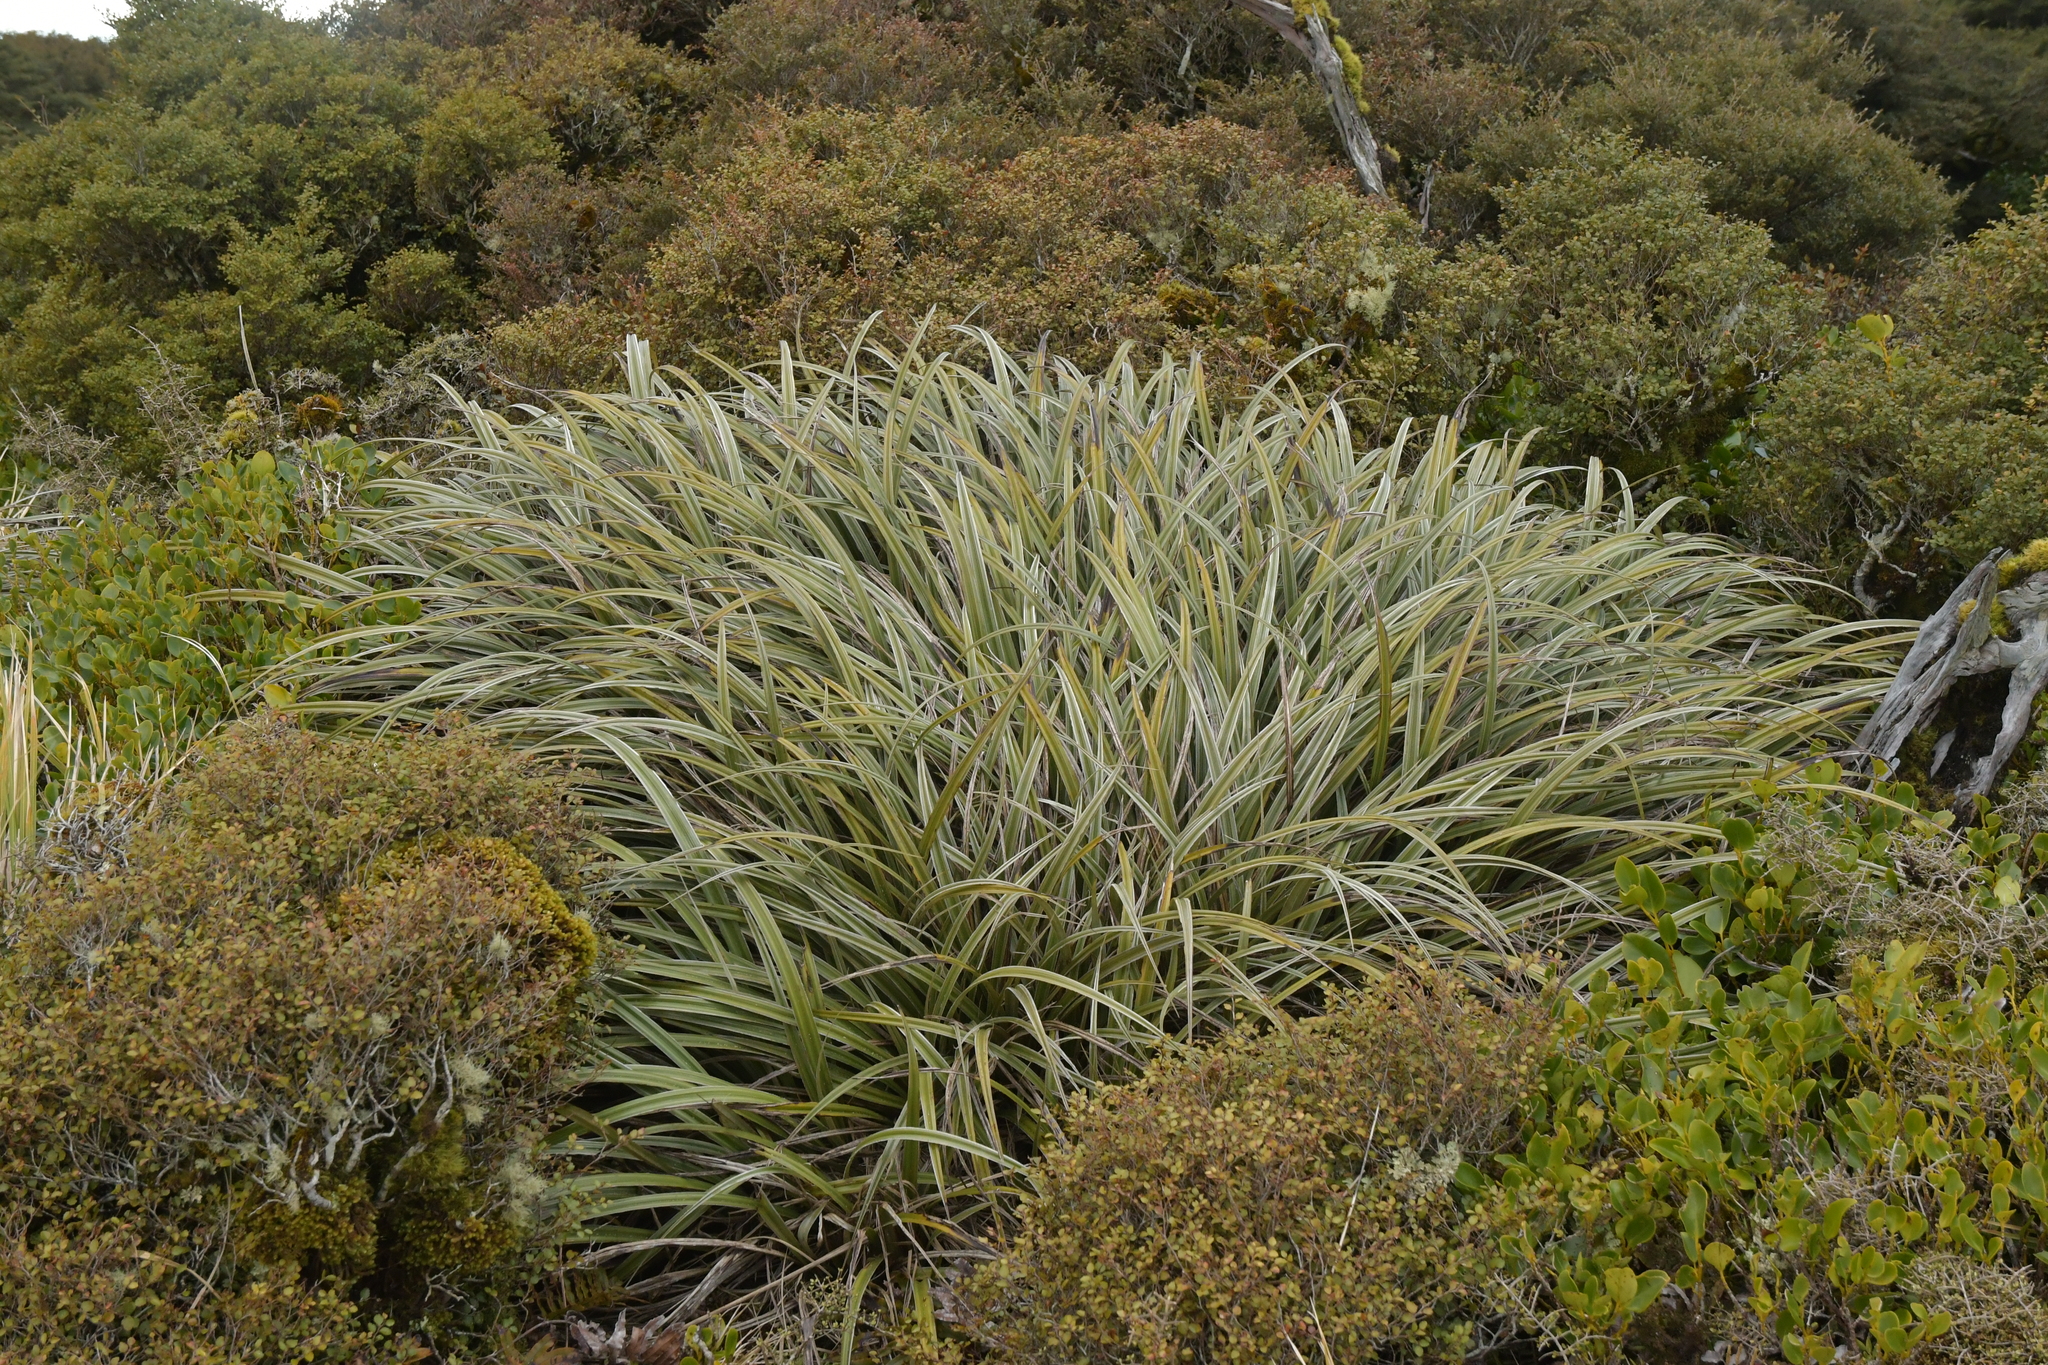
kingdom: Plantae
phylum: Tracheophyta
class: Liliopsida
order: Asparagales
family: Asteliaceae
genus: Astelia
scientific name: Astelia nervosa
